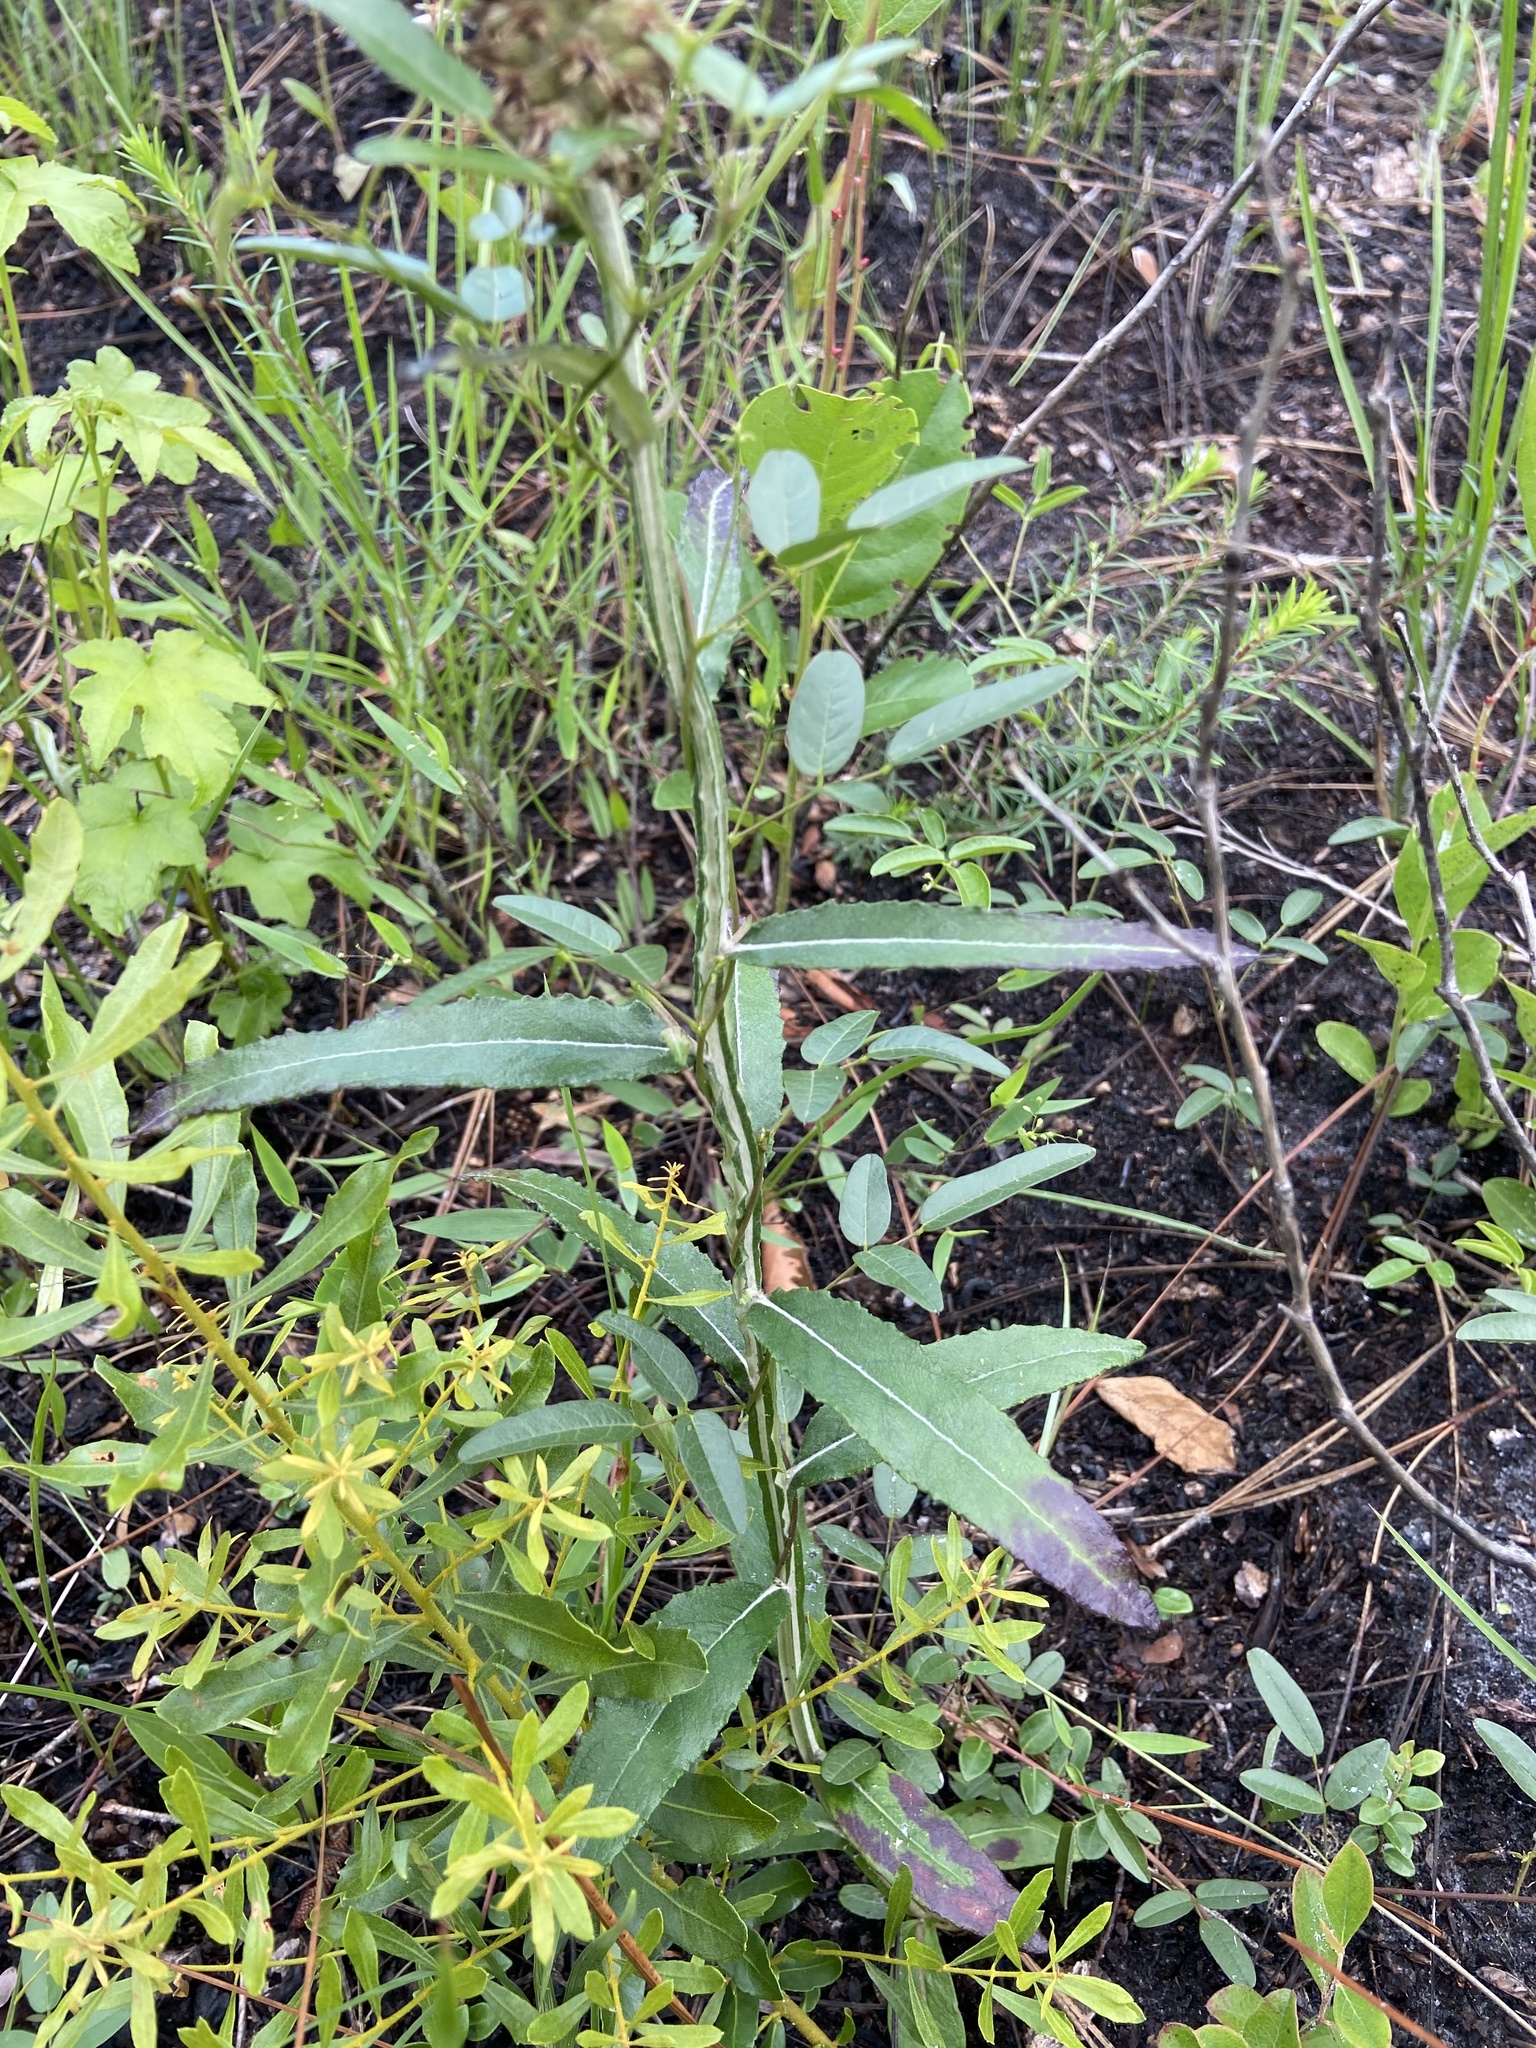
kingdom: Plantae
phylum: Tracheophyta
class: Magnoliopsida
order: Asterales
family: Asteraceae
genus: Pterocaulon
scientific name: Pterocaulon pycnostachyum
